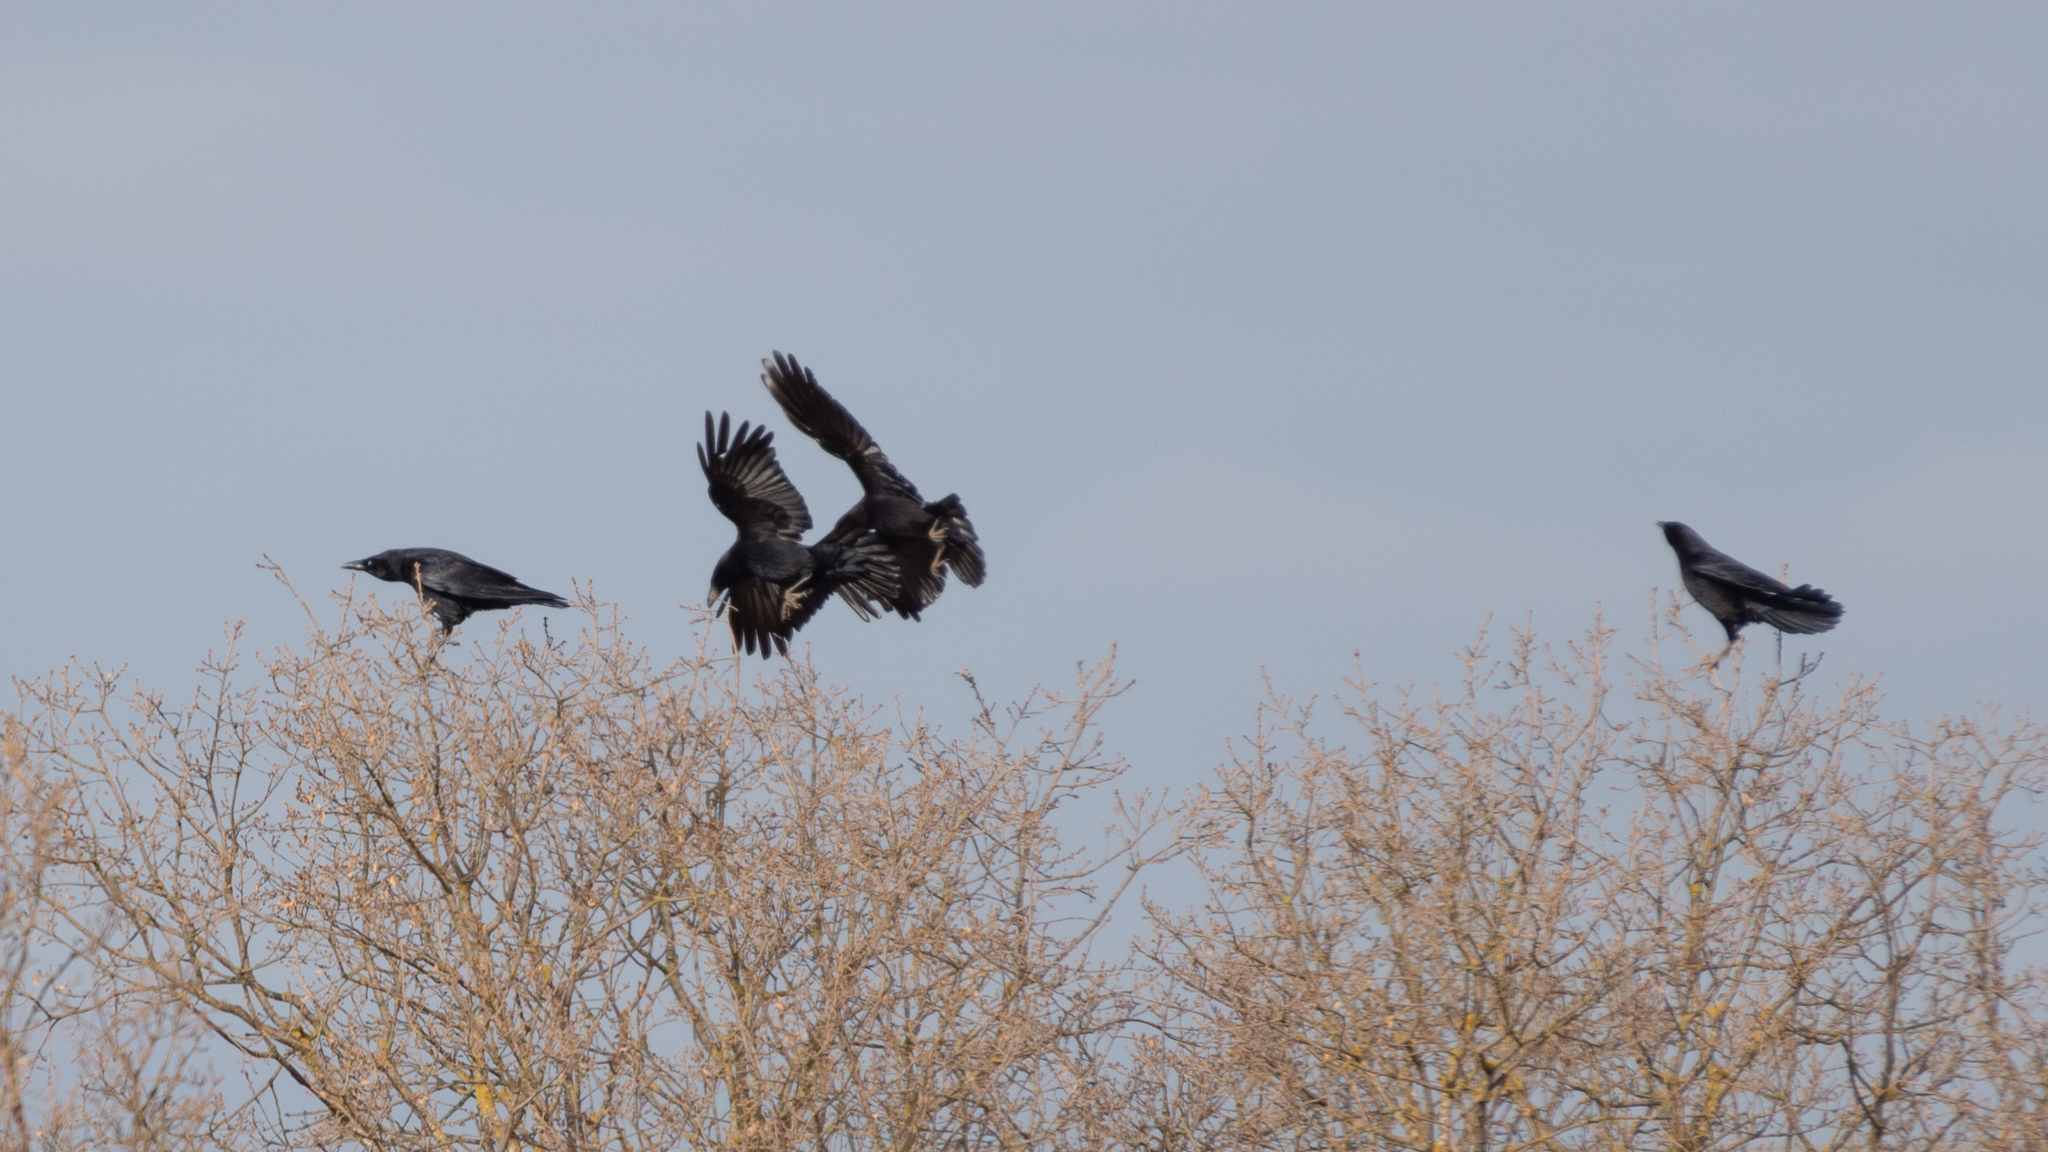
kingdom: Animalia
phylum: Chordata
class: Aves
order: Passeriformes
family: Corvidae
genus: Corvus
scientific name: Corvus corone
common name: Carrion crow
